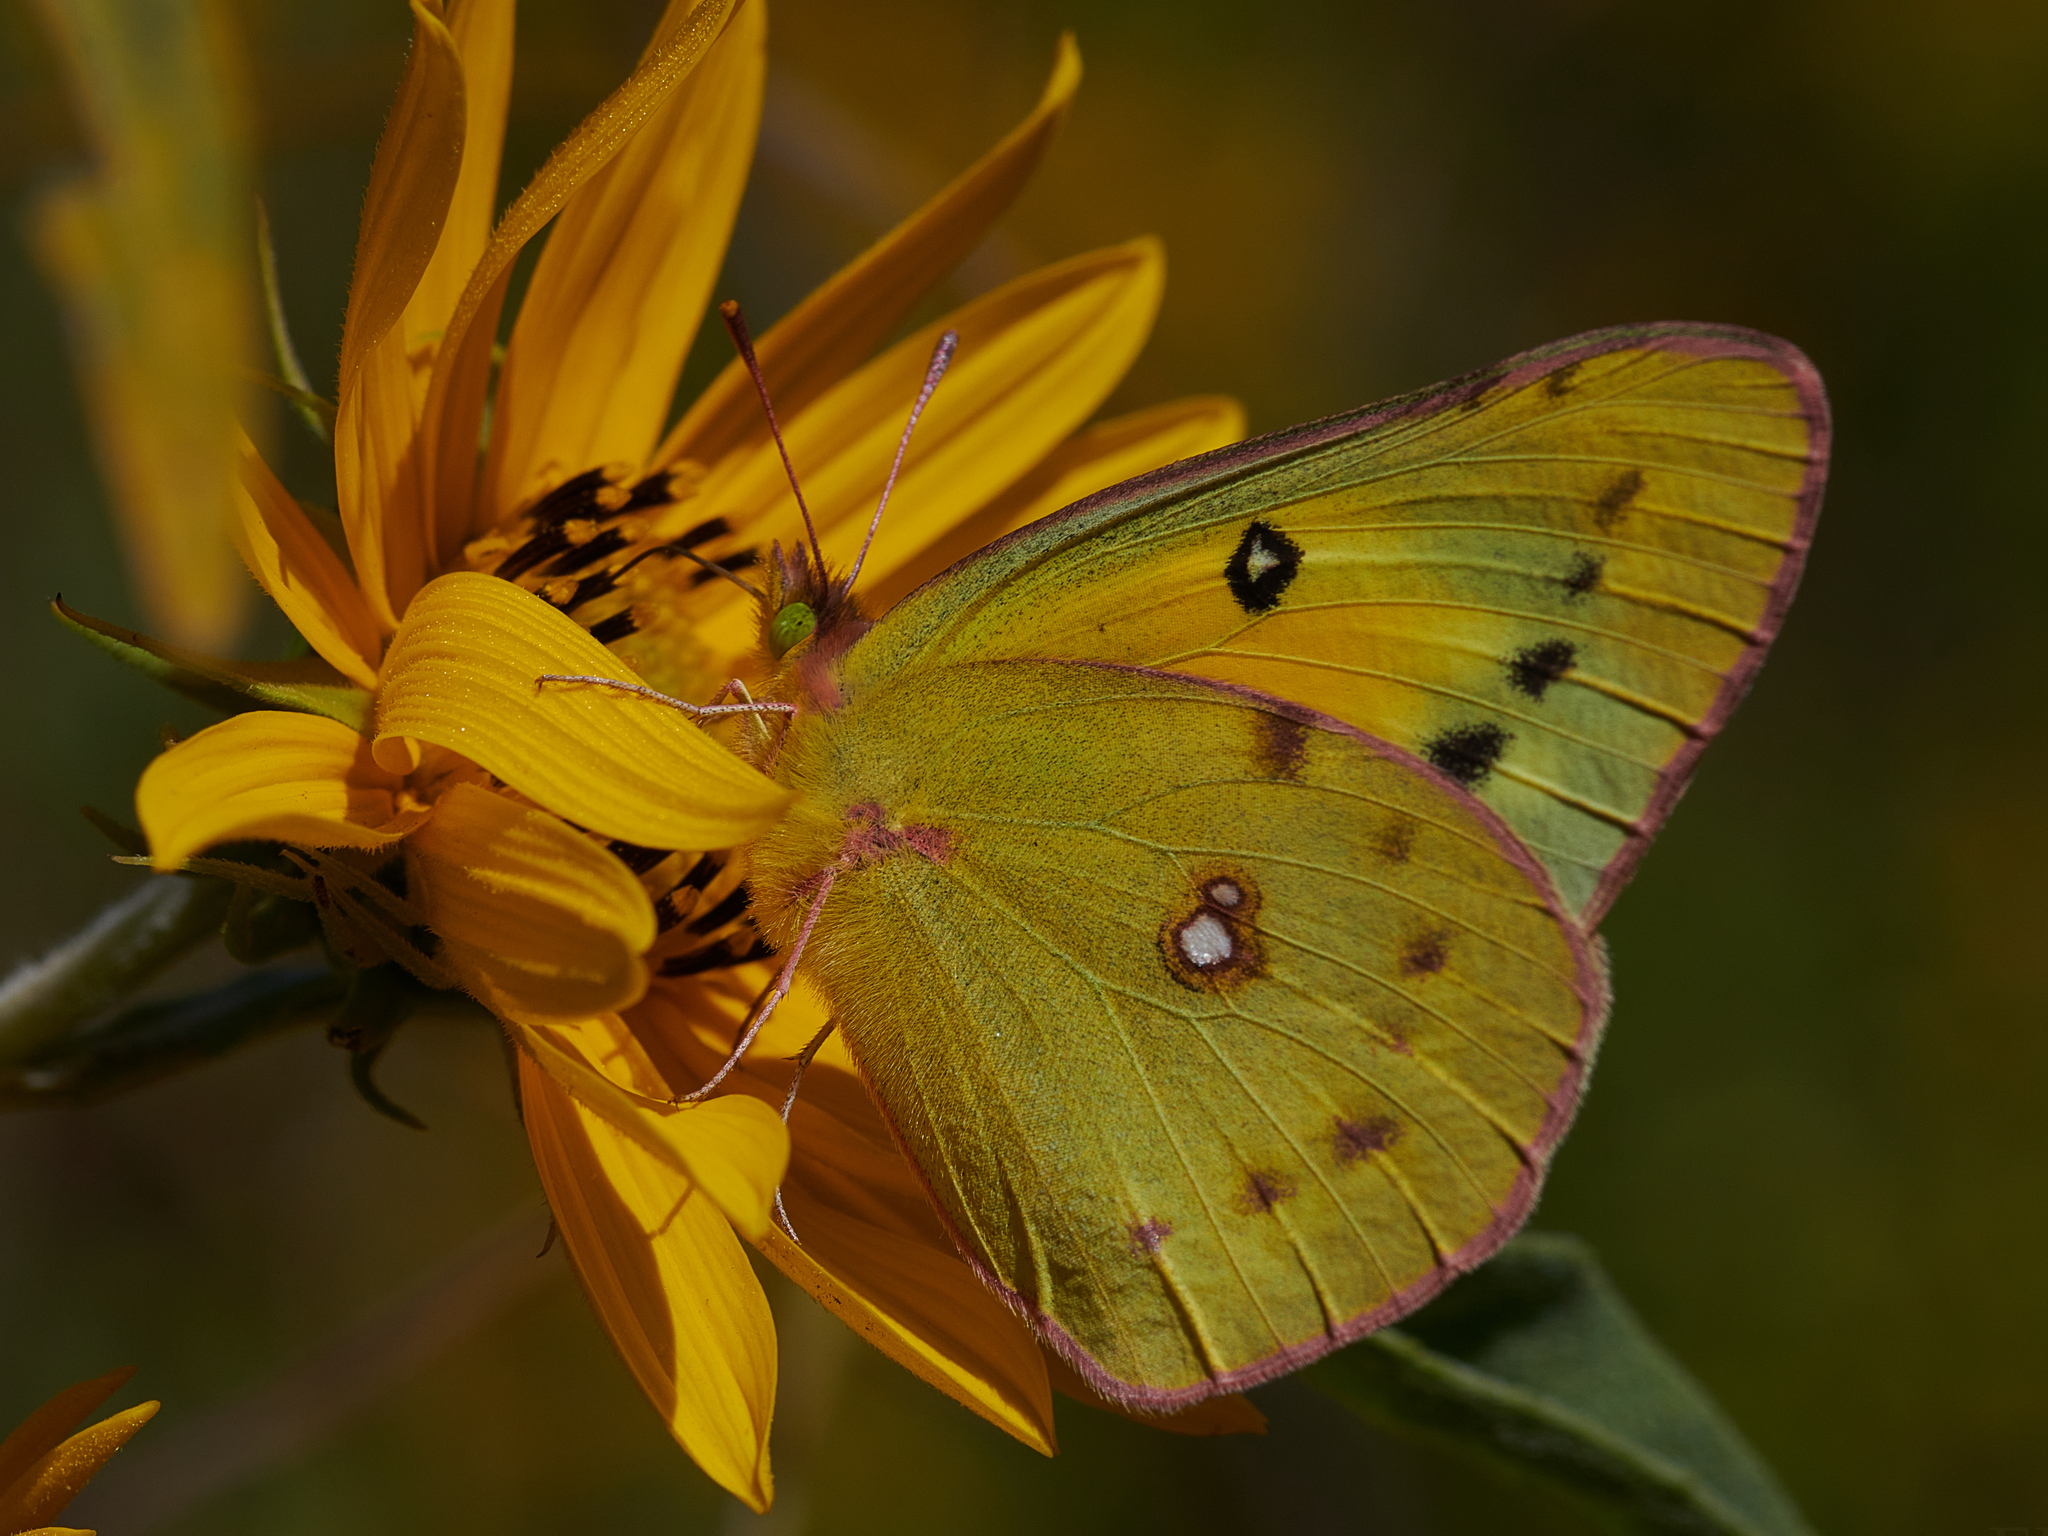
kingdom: Animalia
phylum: Arthropoda
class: Insecta
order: Lepidoptera
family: Pieridae
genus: Colias
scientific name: Colias eurytheme
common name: Alfalfa butterfly
